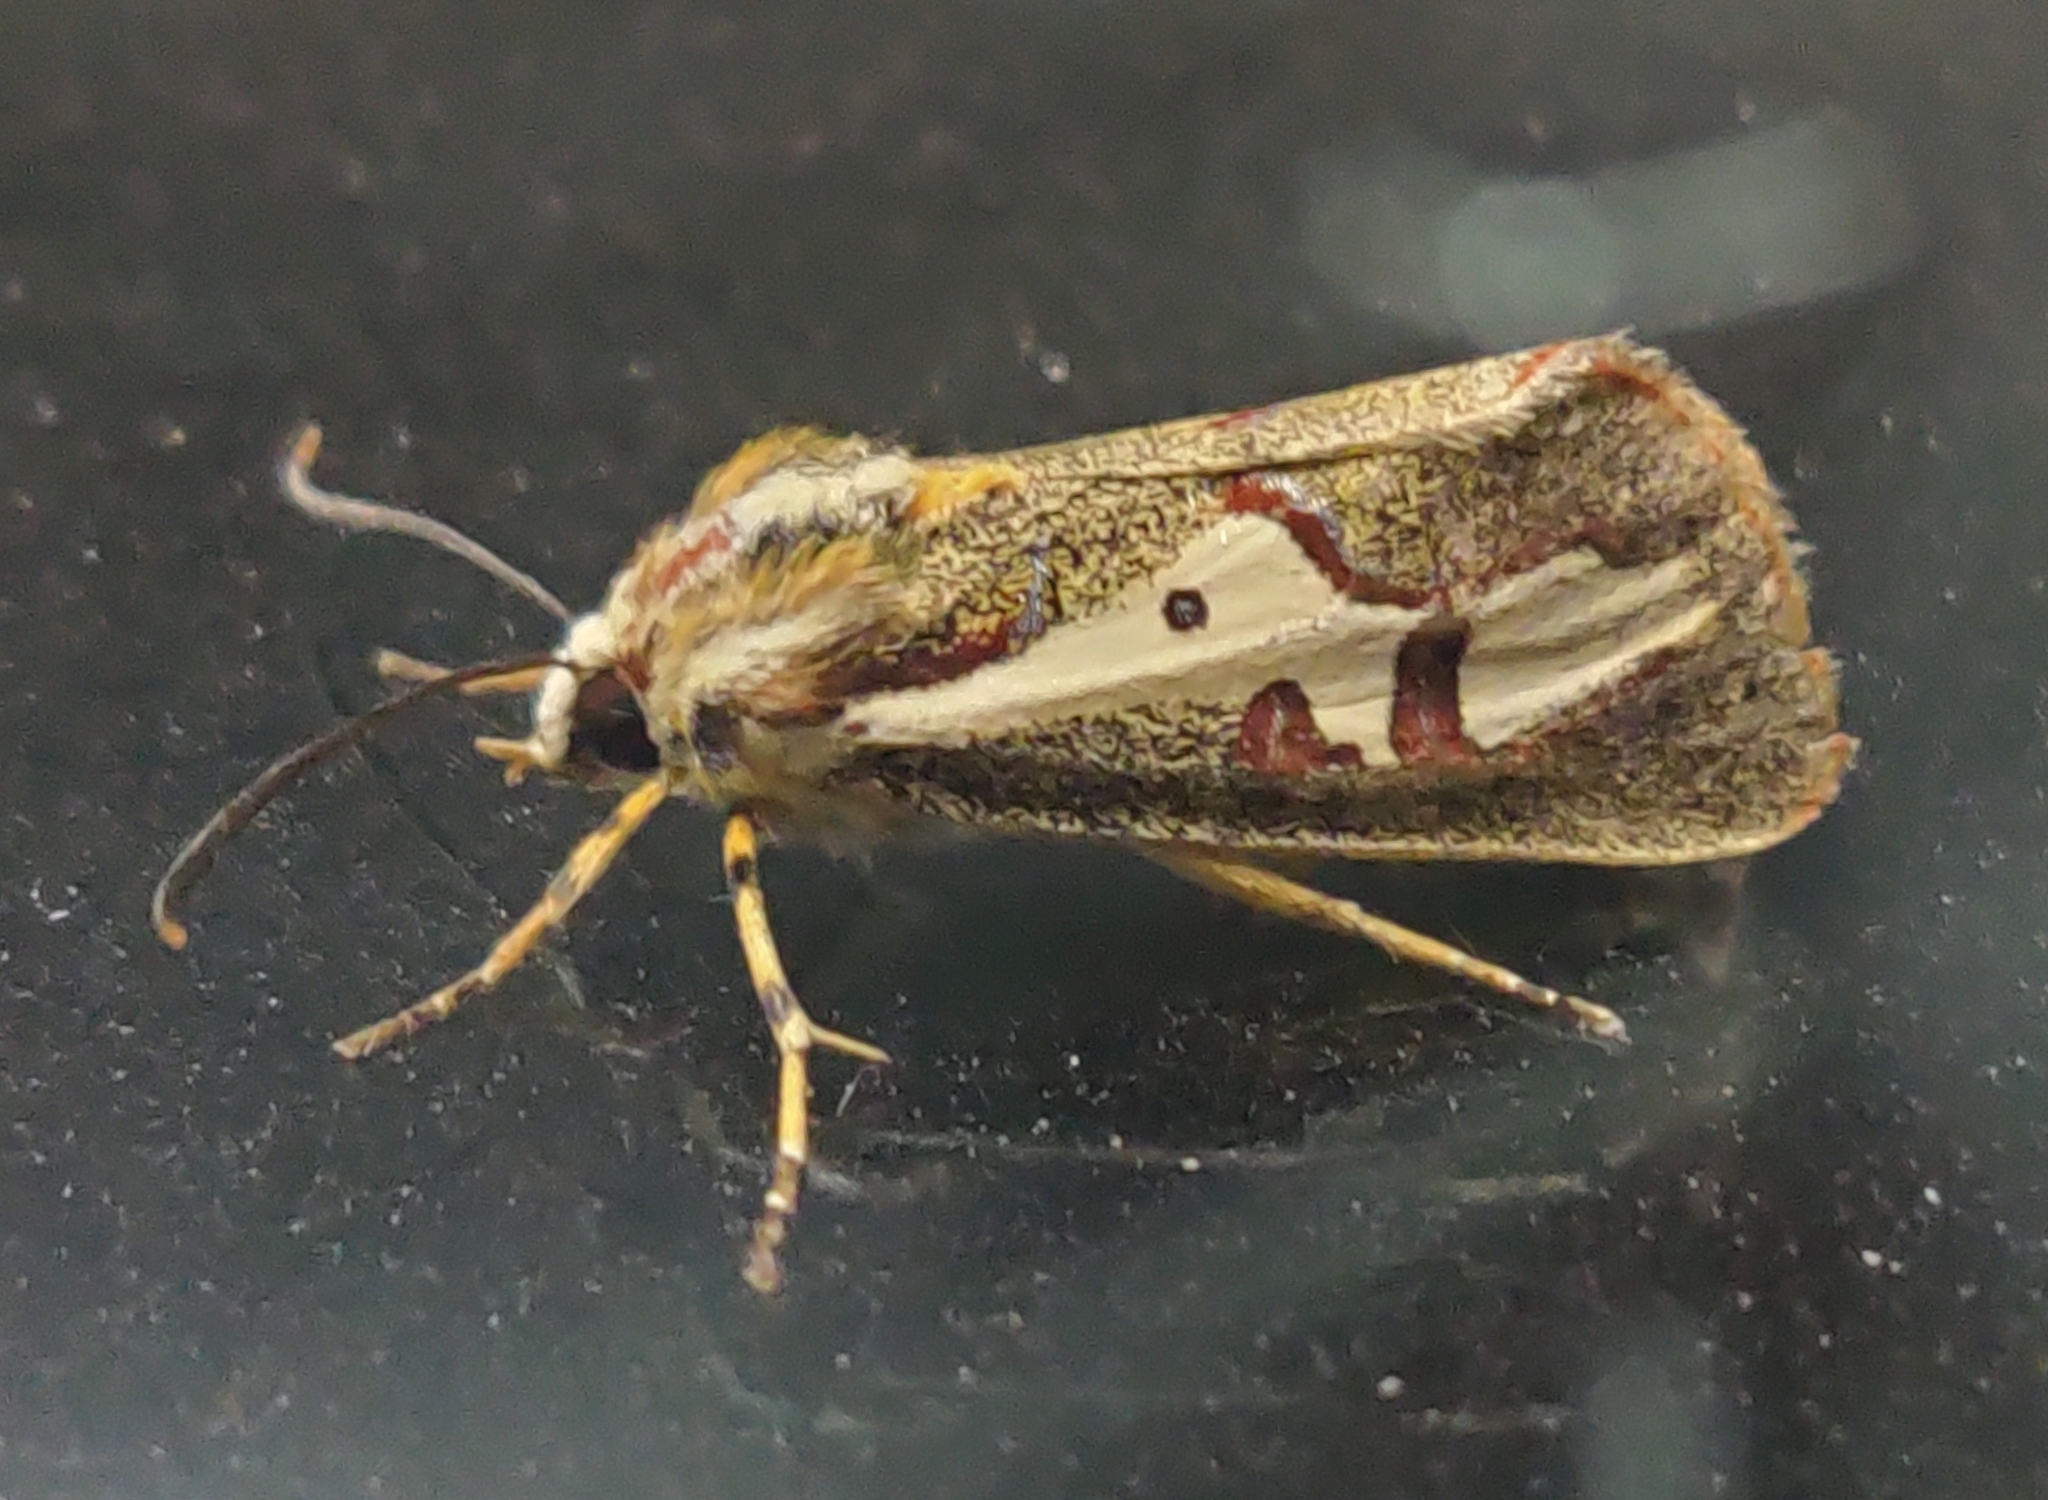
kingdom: Animalia
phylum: Arthropoda
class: Insecta
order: Lepidoptera
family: Noctuidae
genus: Aegocera
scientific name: Aegocera venulia
